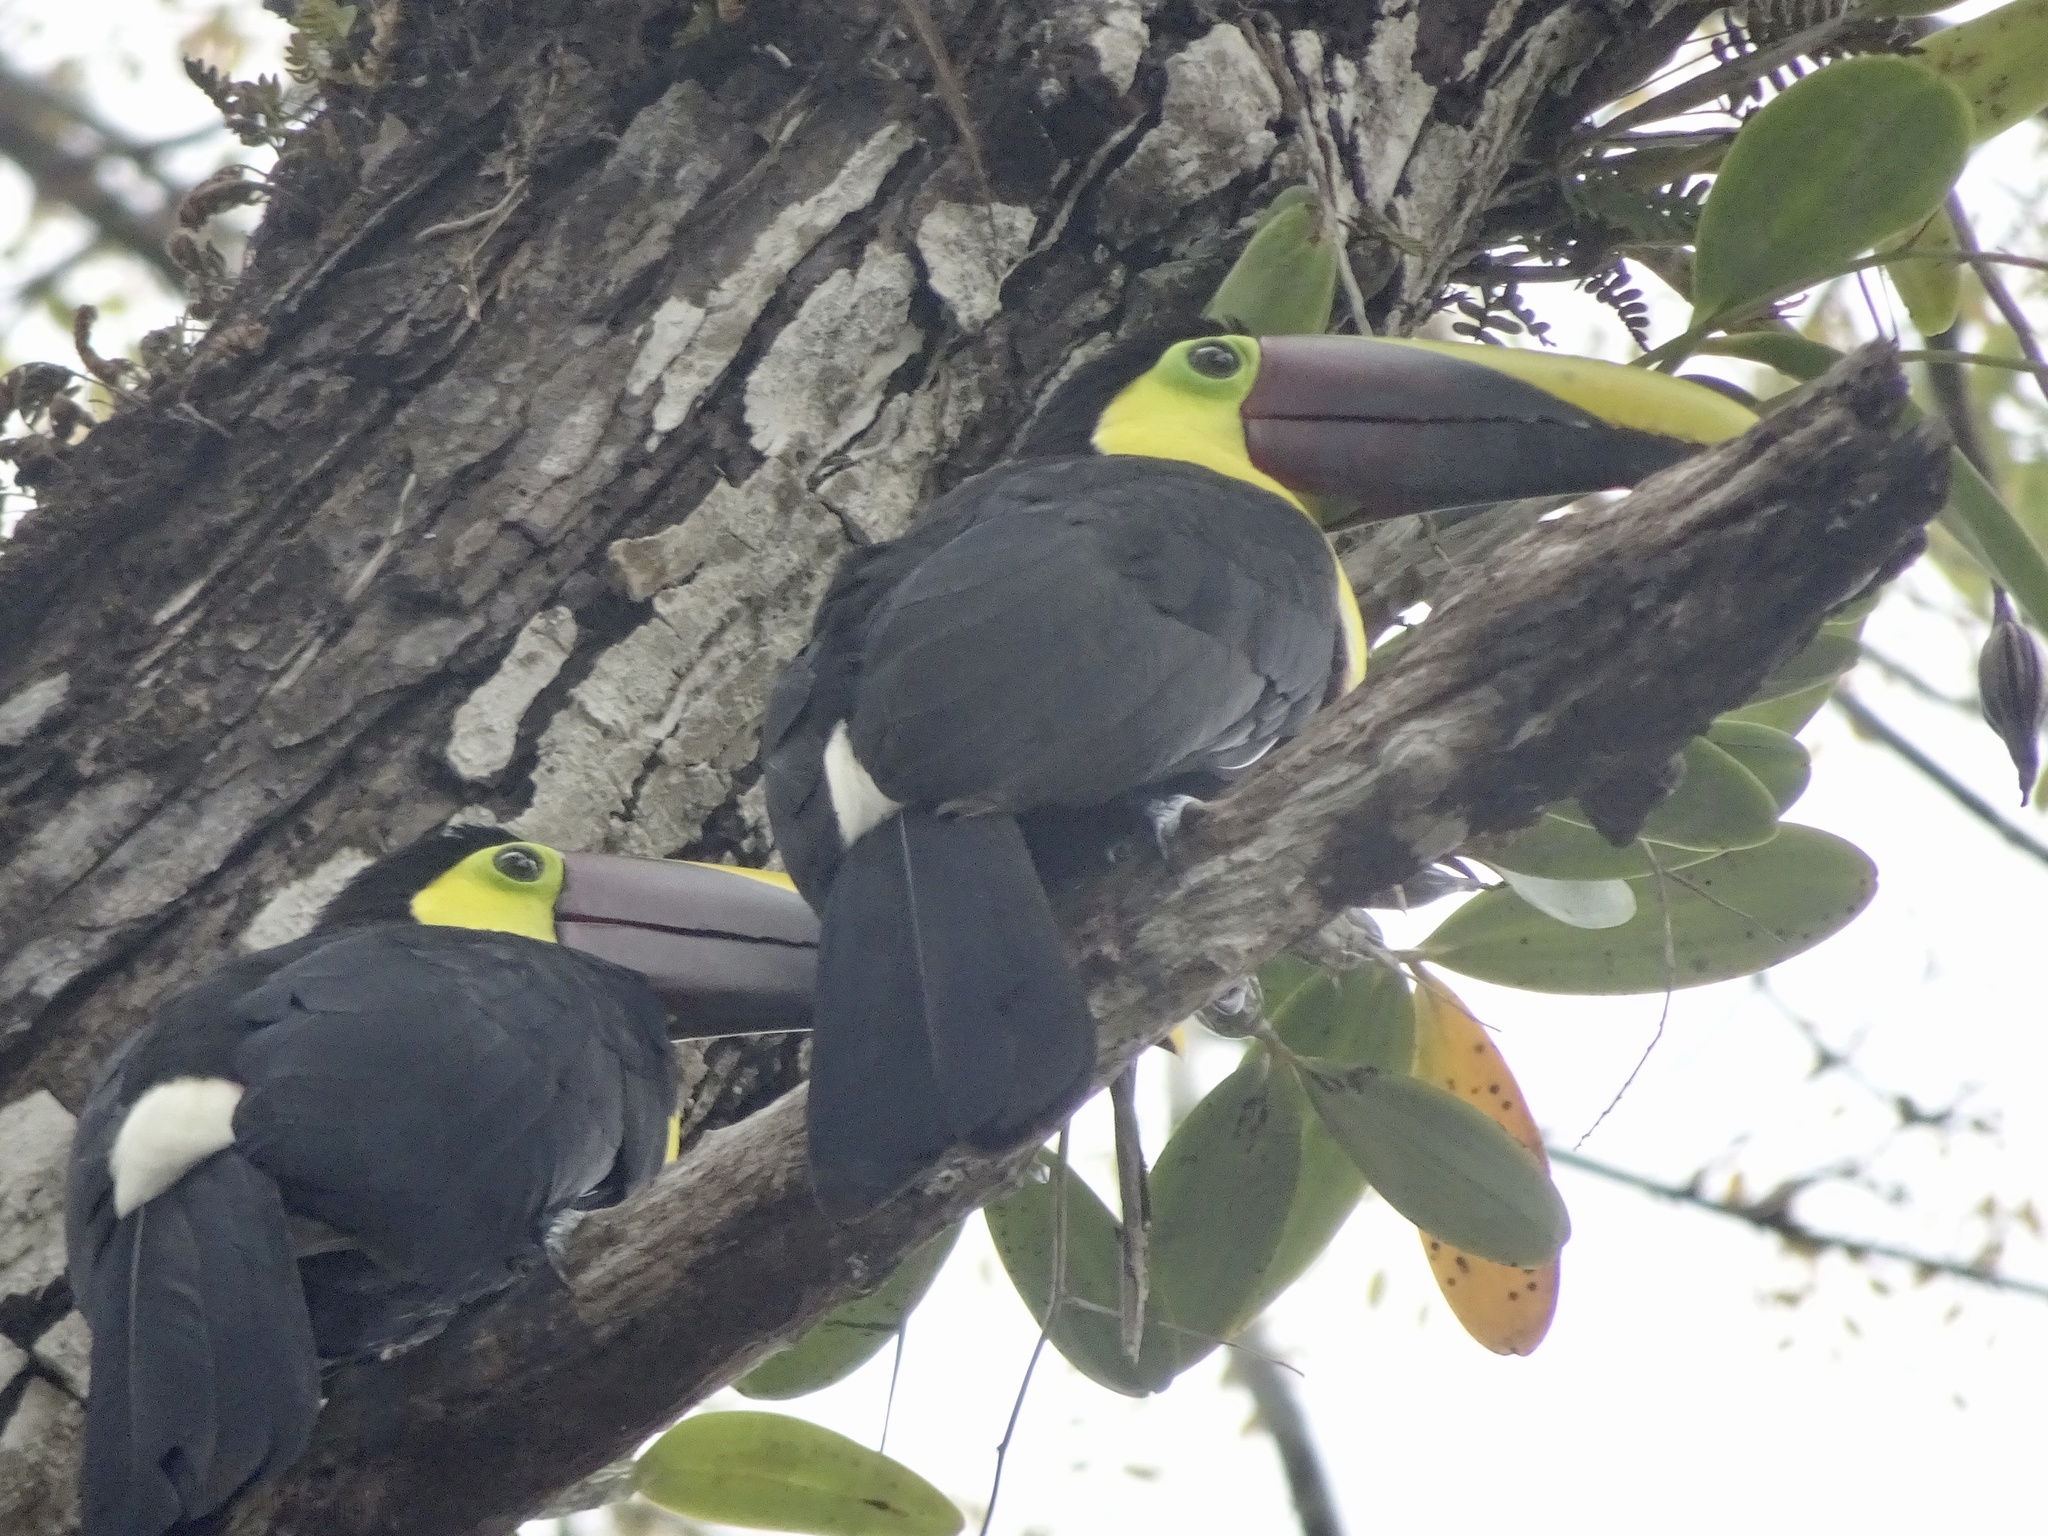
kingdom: Animalia
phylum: Chordata
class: Aves
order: Piciformes
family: Ramphastidae
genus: Ramphastos
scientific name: Ramphastos ambiguus
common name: Yellow-throated toucan
